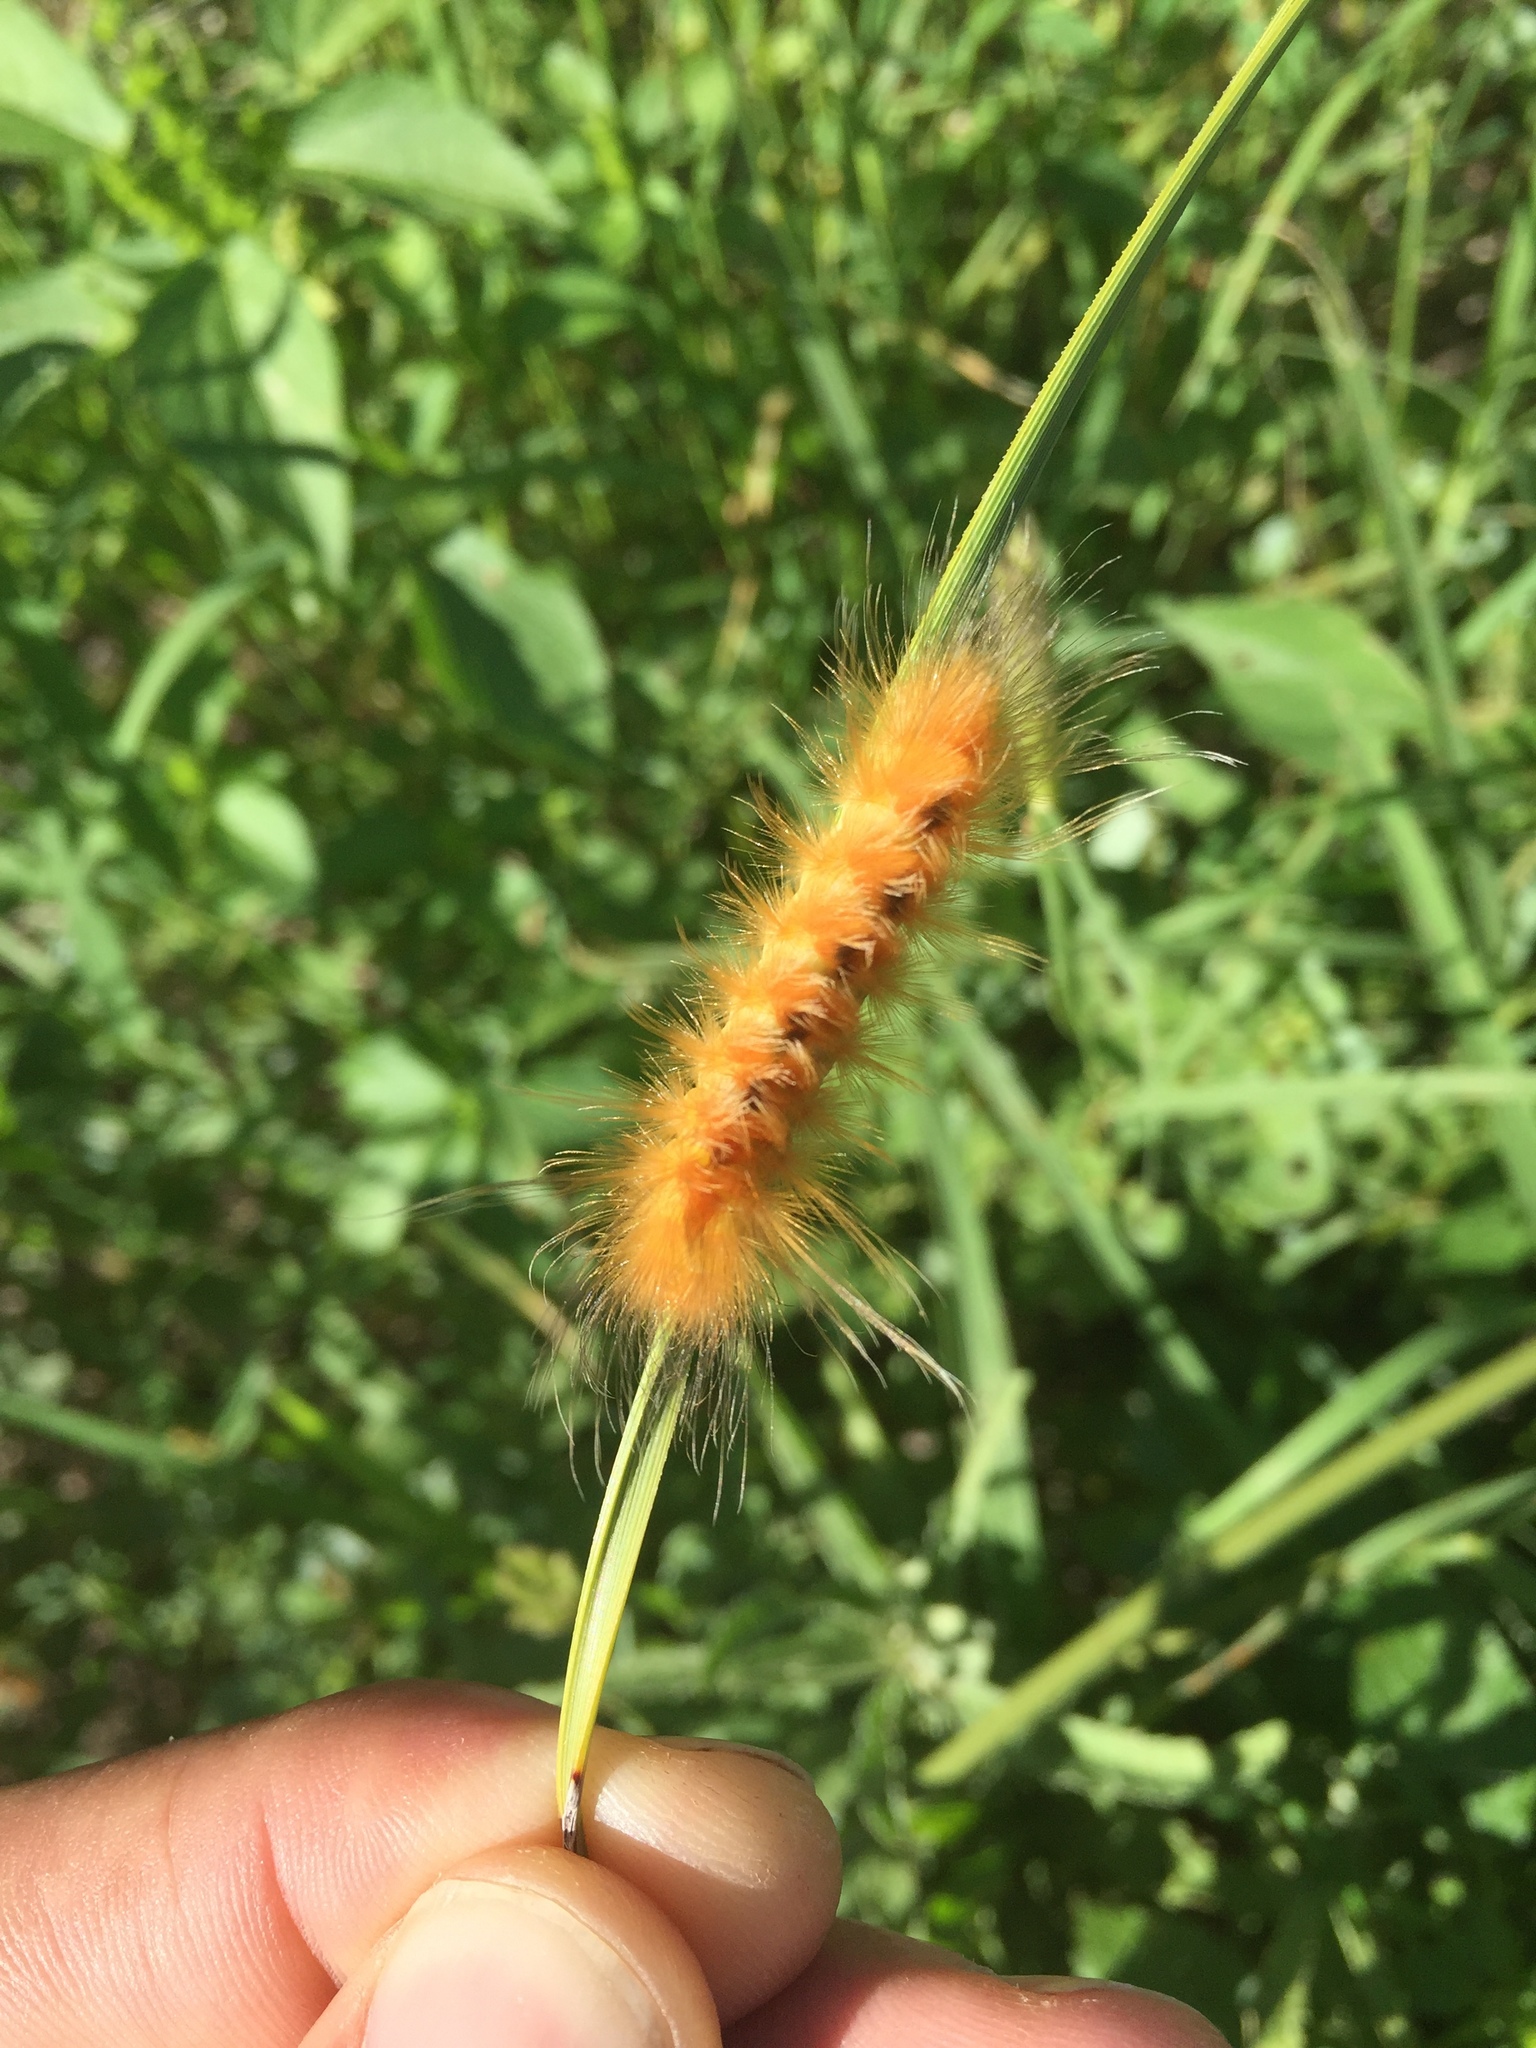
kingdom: Animalia
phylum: Arthropoda
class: Insecta
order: Lepidoptera
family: Erebidae
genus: Pygarctia
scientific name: Pygarctia roseicapitis
